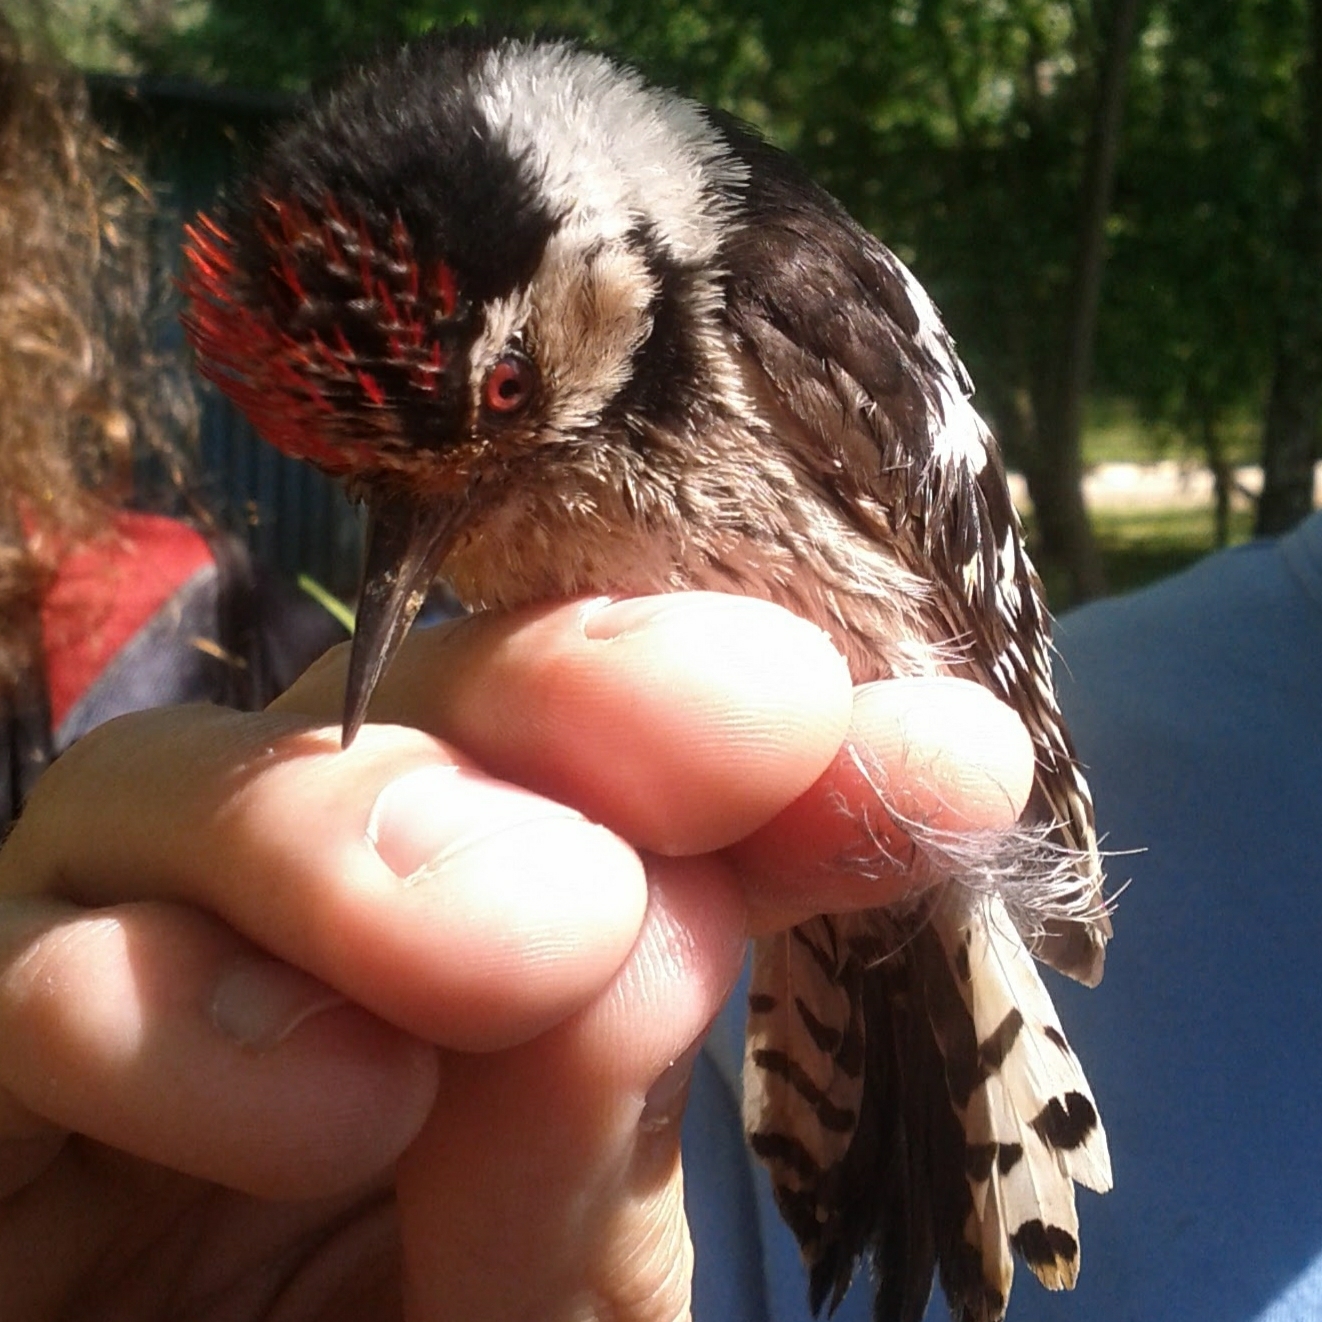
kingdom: Animalia
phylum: Chordata
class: Aves
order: Piciformes
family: Picidae
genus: Dryobates
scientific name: Dryobates minor
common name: Lesser spotted woodpecker
